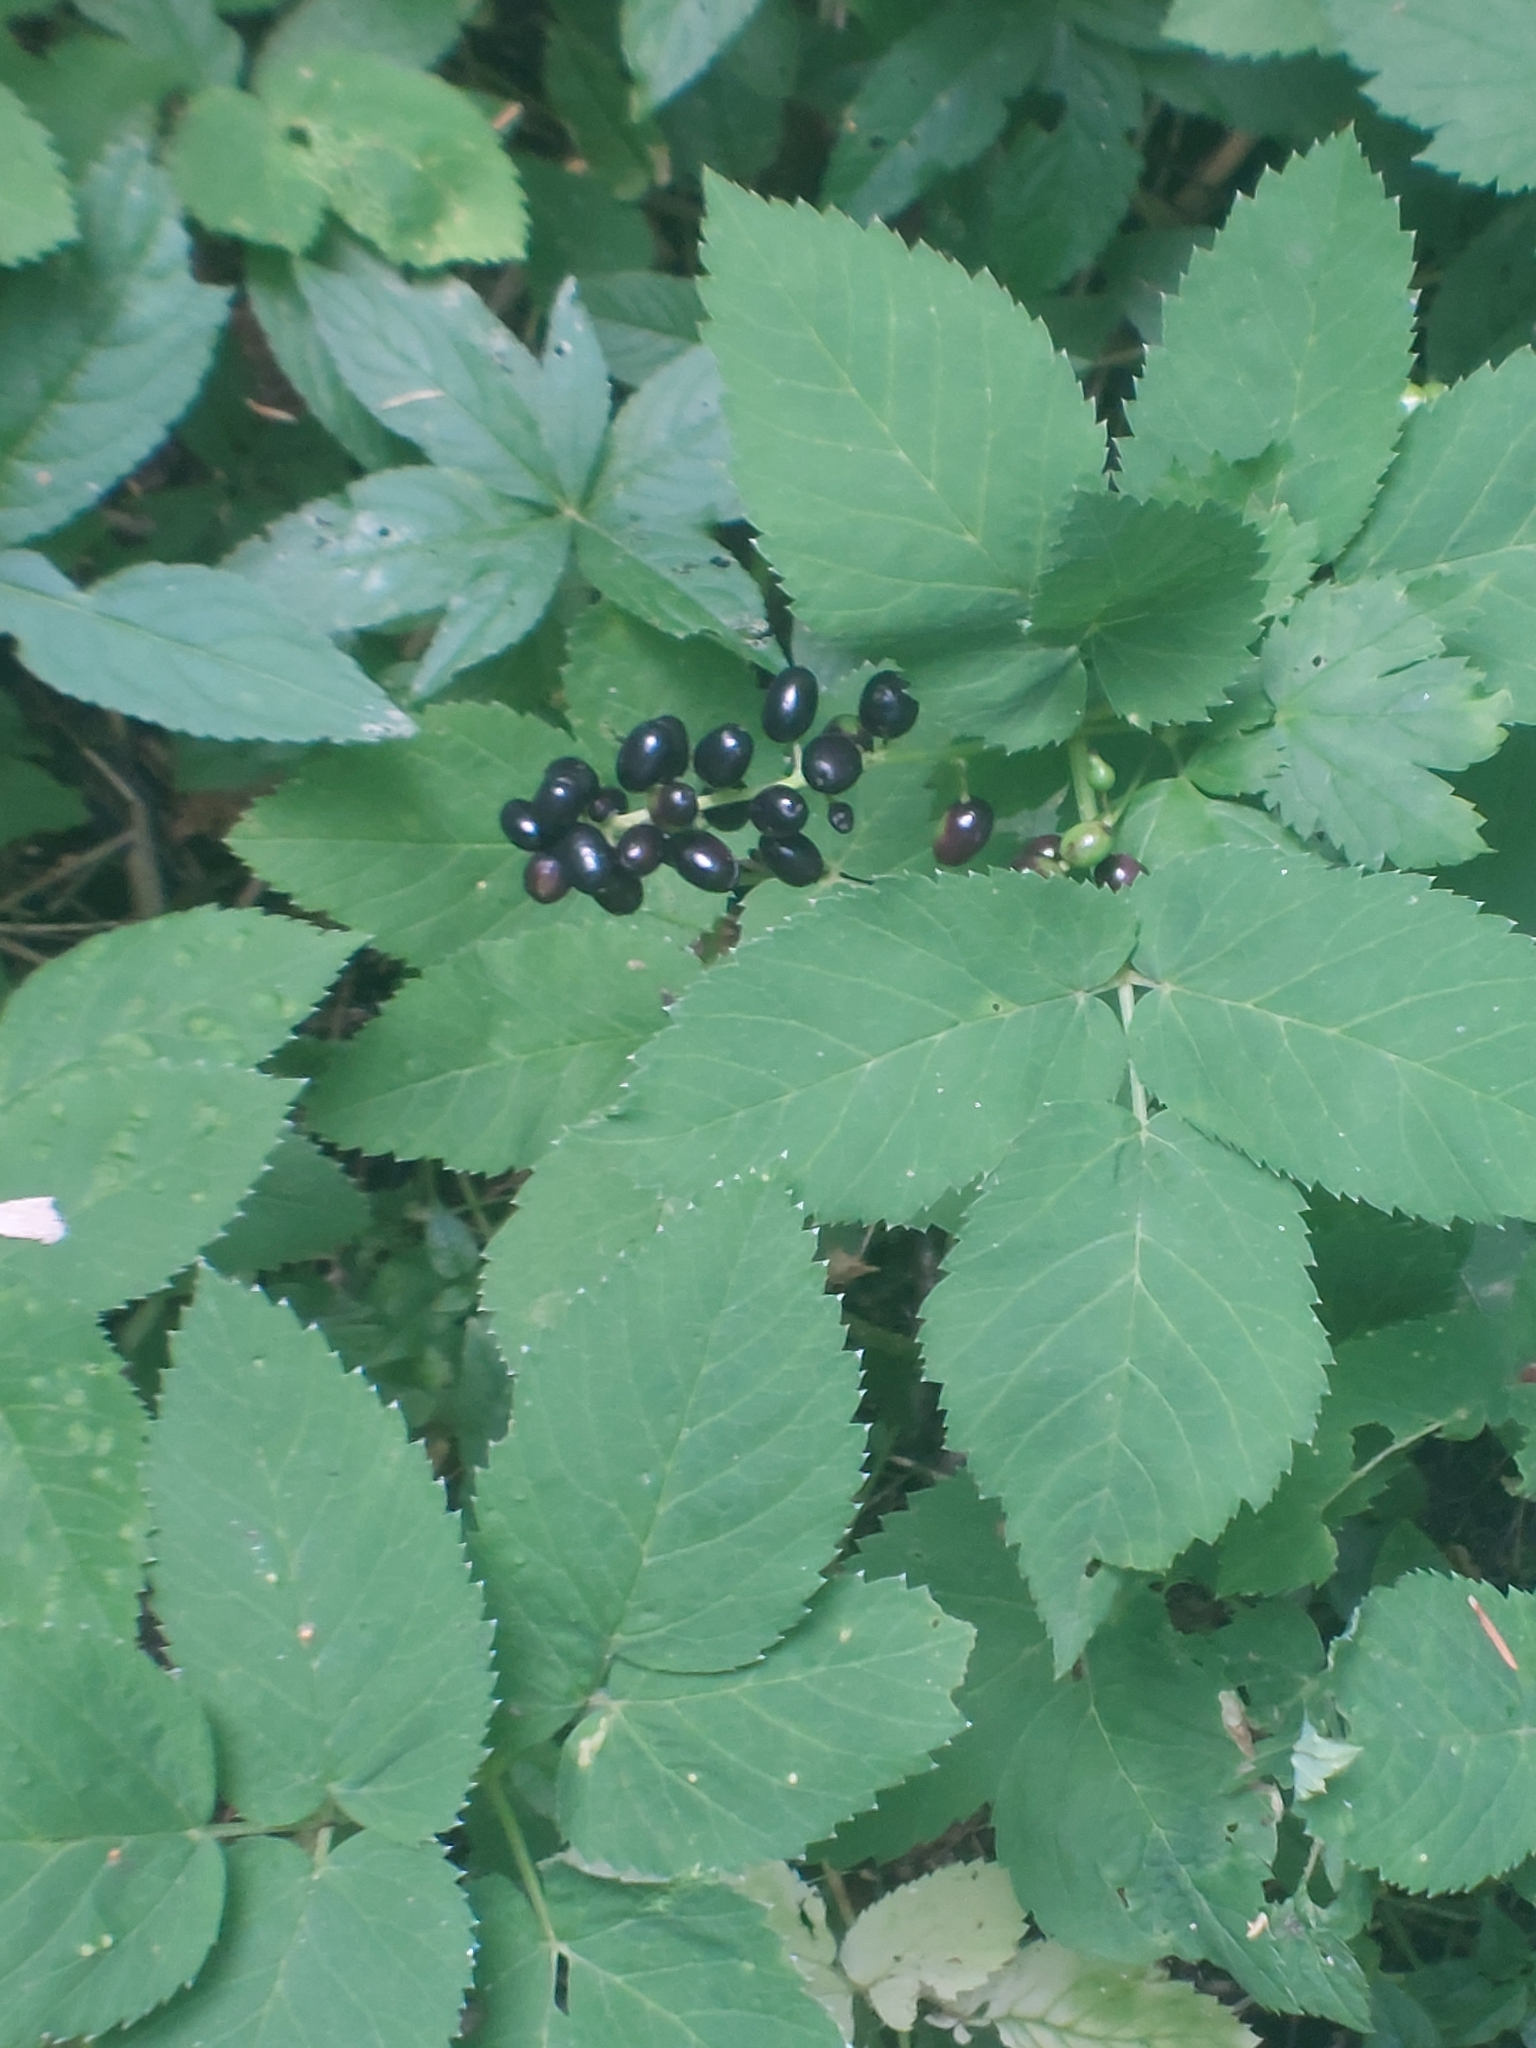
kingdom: Plantae
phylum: Tracheophyta
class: Magnoliopsida
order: Ranunculales
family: Ranunculaceae
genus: Actaea
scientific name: Actaea spicata
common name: Baneberry
